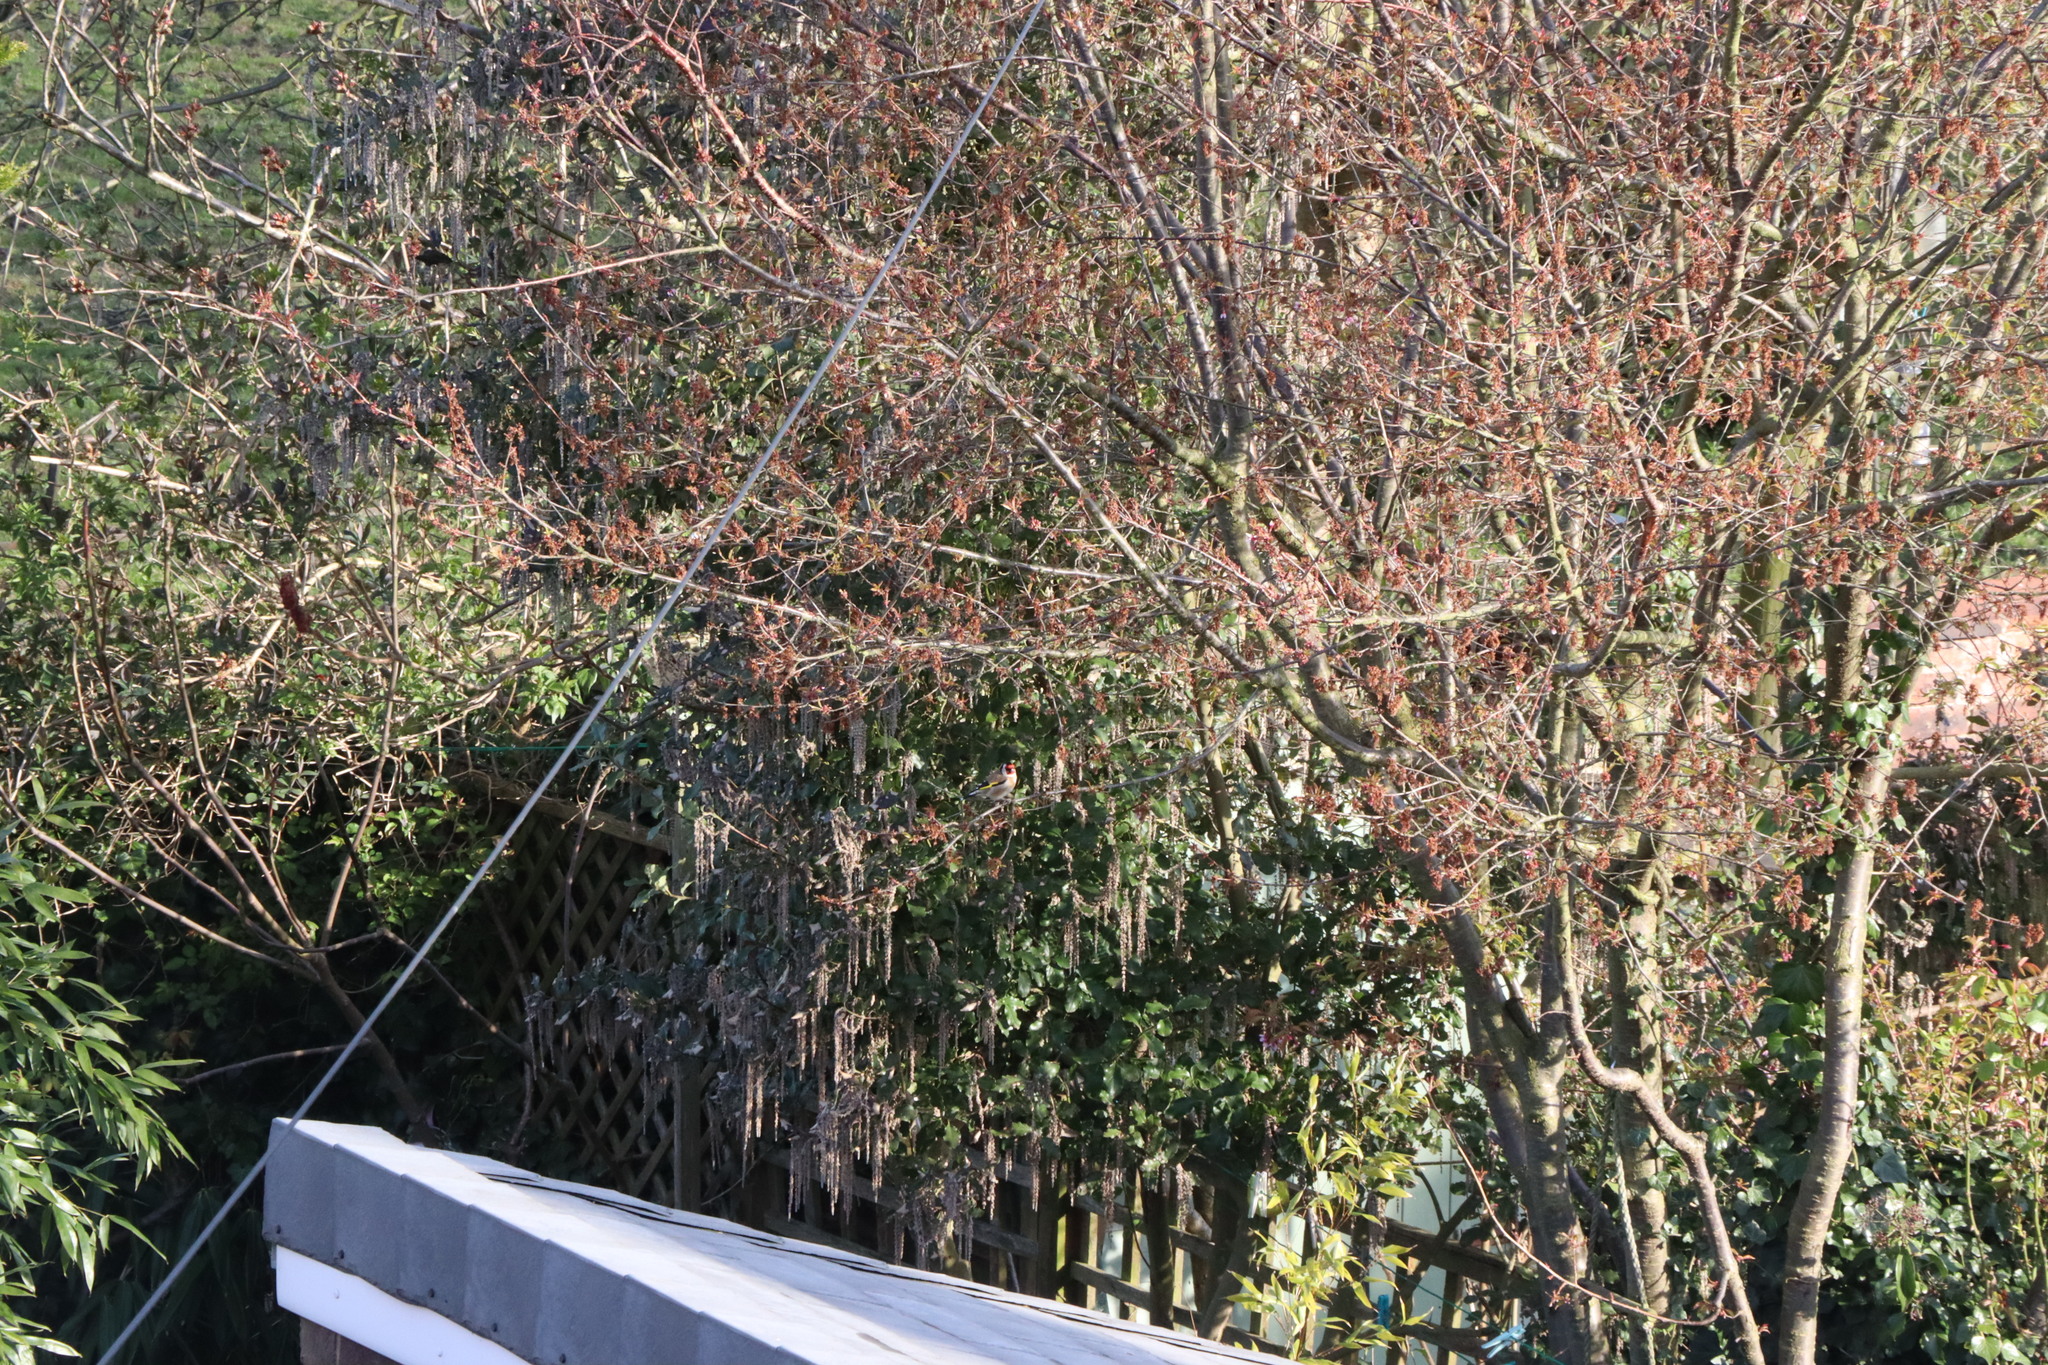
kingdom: Animalia
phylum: Chordata
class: Aves
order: Passeriformes
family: Fringillidae
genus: Carduelis
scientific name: Carduelis carduelis
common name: European goldfinch
